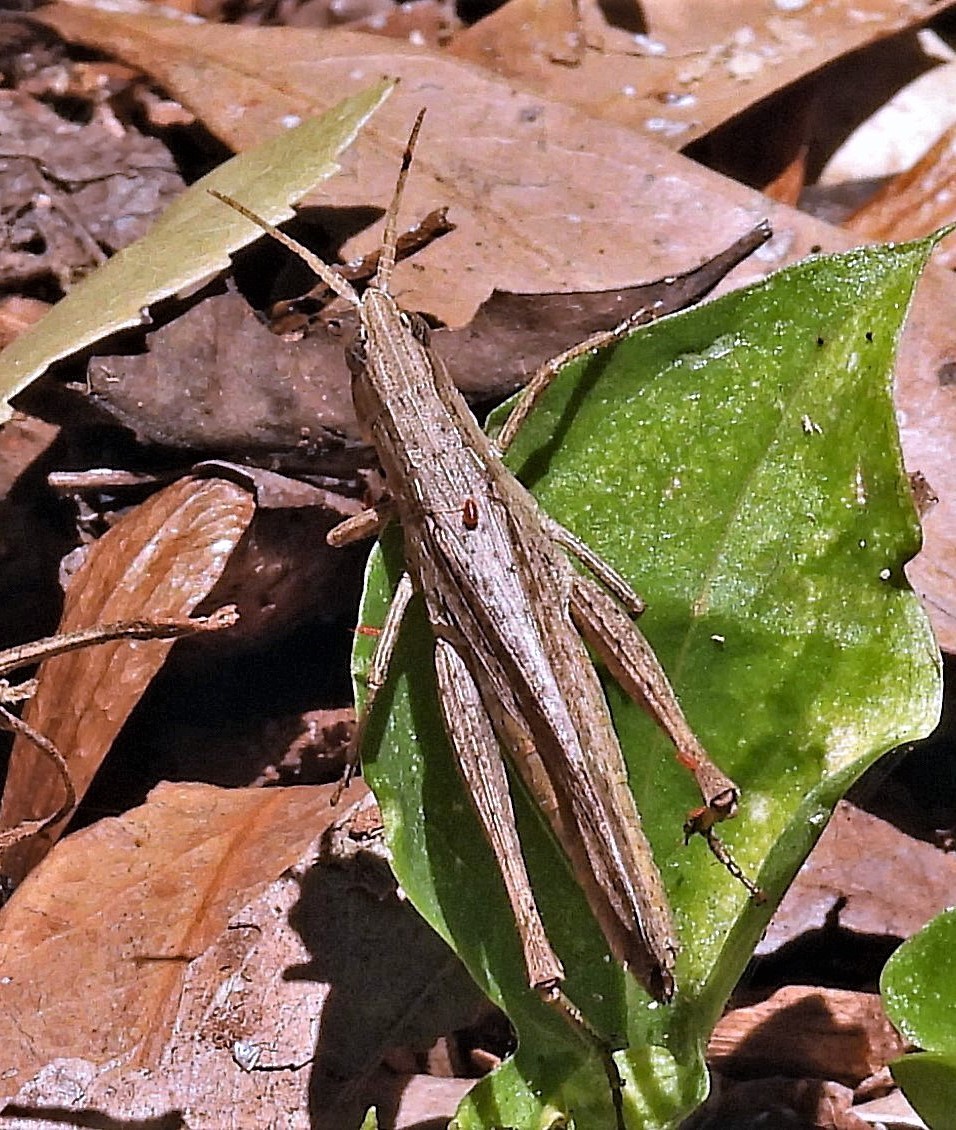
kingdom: Animalia
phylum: Arthropoda
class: Insecta
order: Orthoptera
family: Acrididae
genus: Eutryxalis
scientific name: Eutryxalis filata
